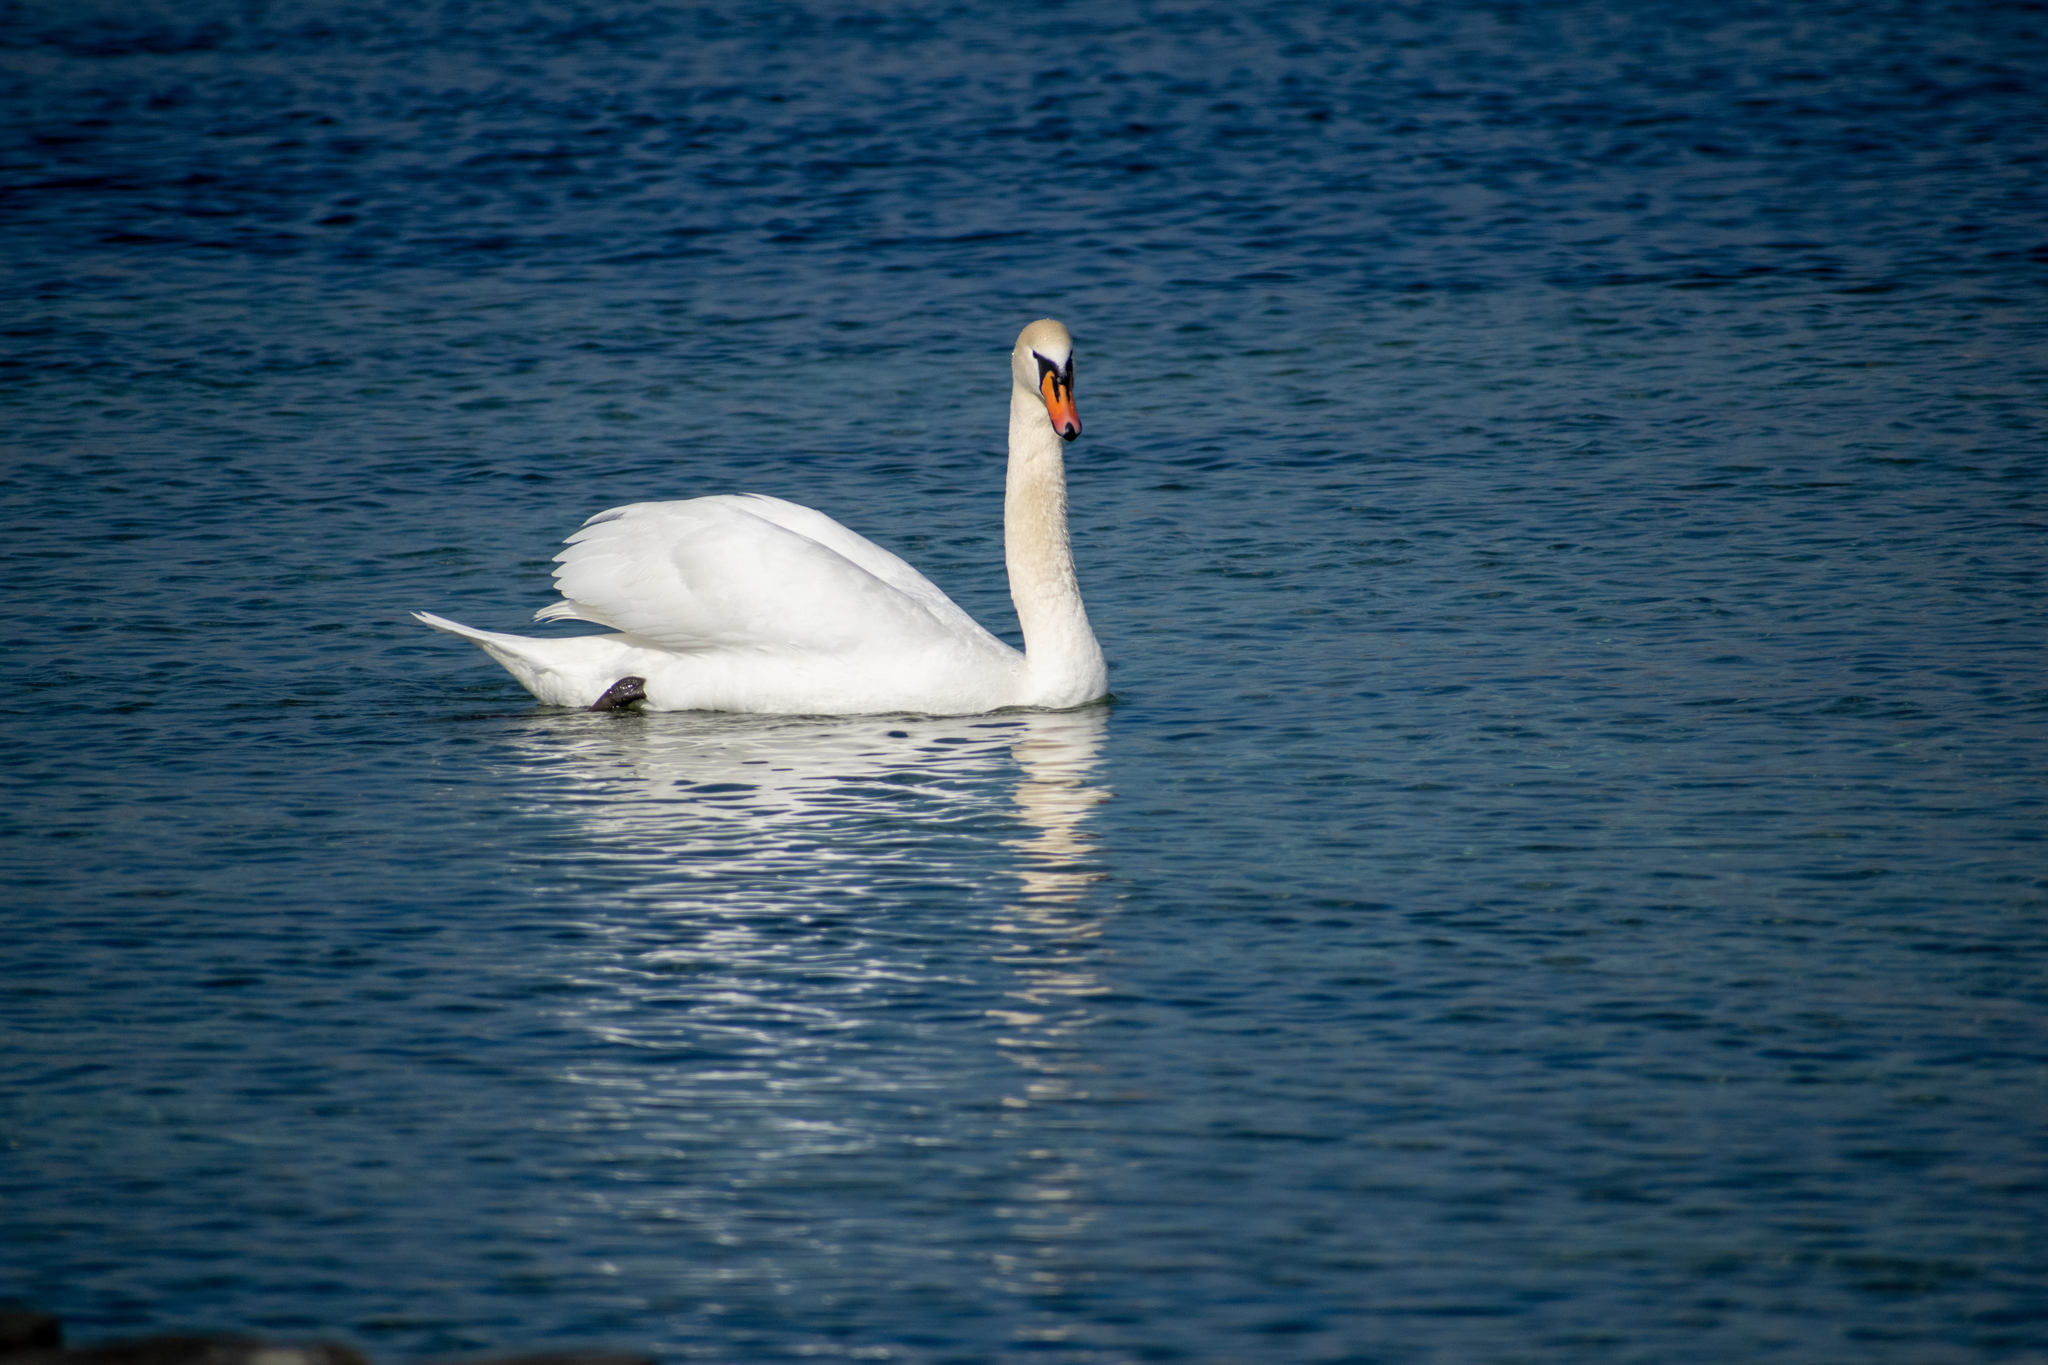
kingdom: Animalia
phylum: Chordata
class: Aves
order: Anseriformes
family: Anatidae
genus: Cygnus
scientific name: Cygnus olor
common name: Mute swan
